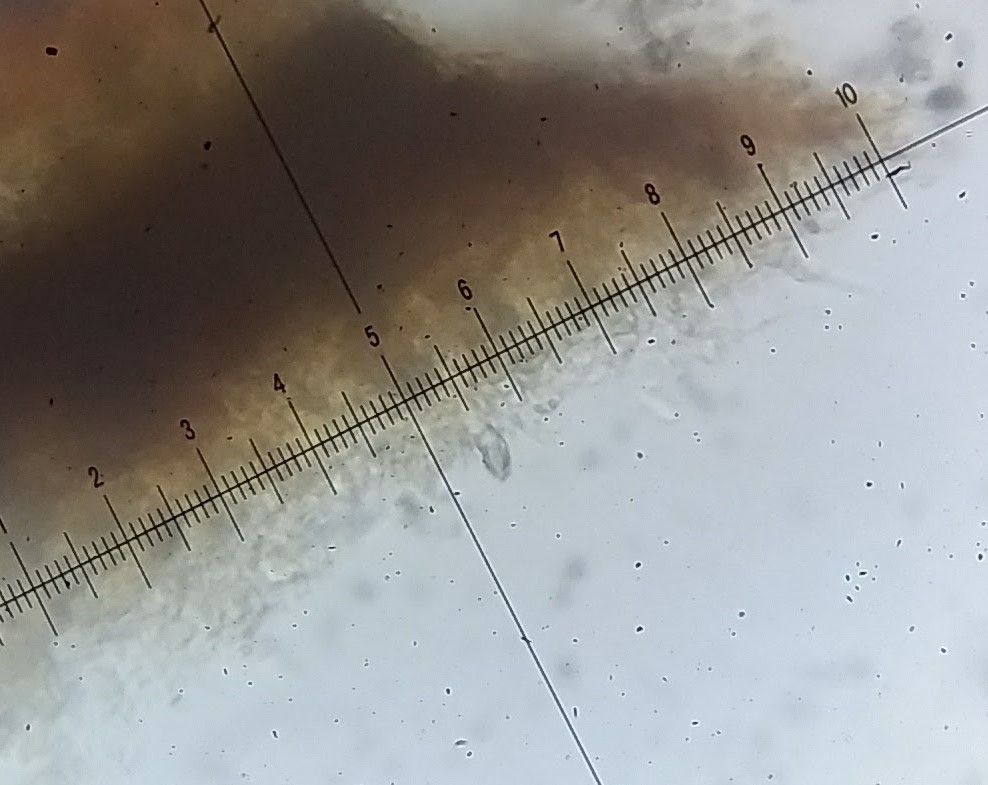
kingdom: Fungi
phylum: Basidiomycota
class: Agaricomycetes
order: Russulales
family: Peniophoraceae
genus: Peniophora
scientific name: Peniophora cinerea
